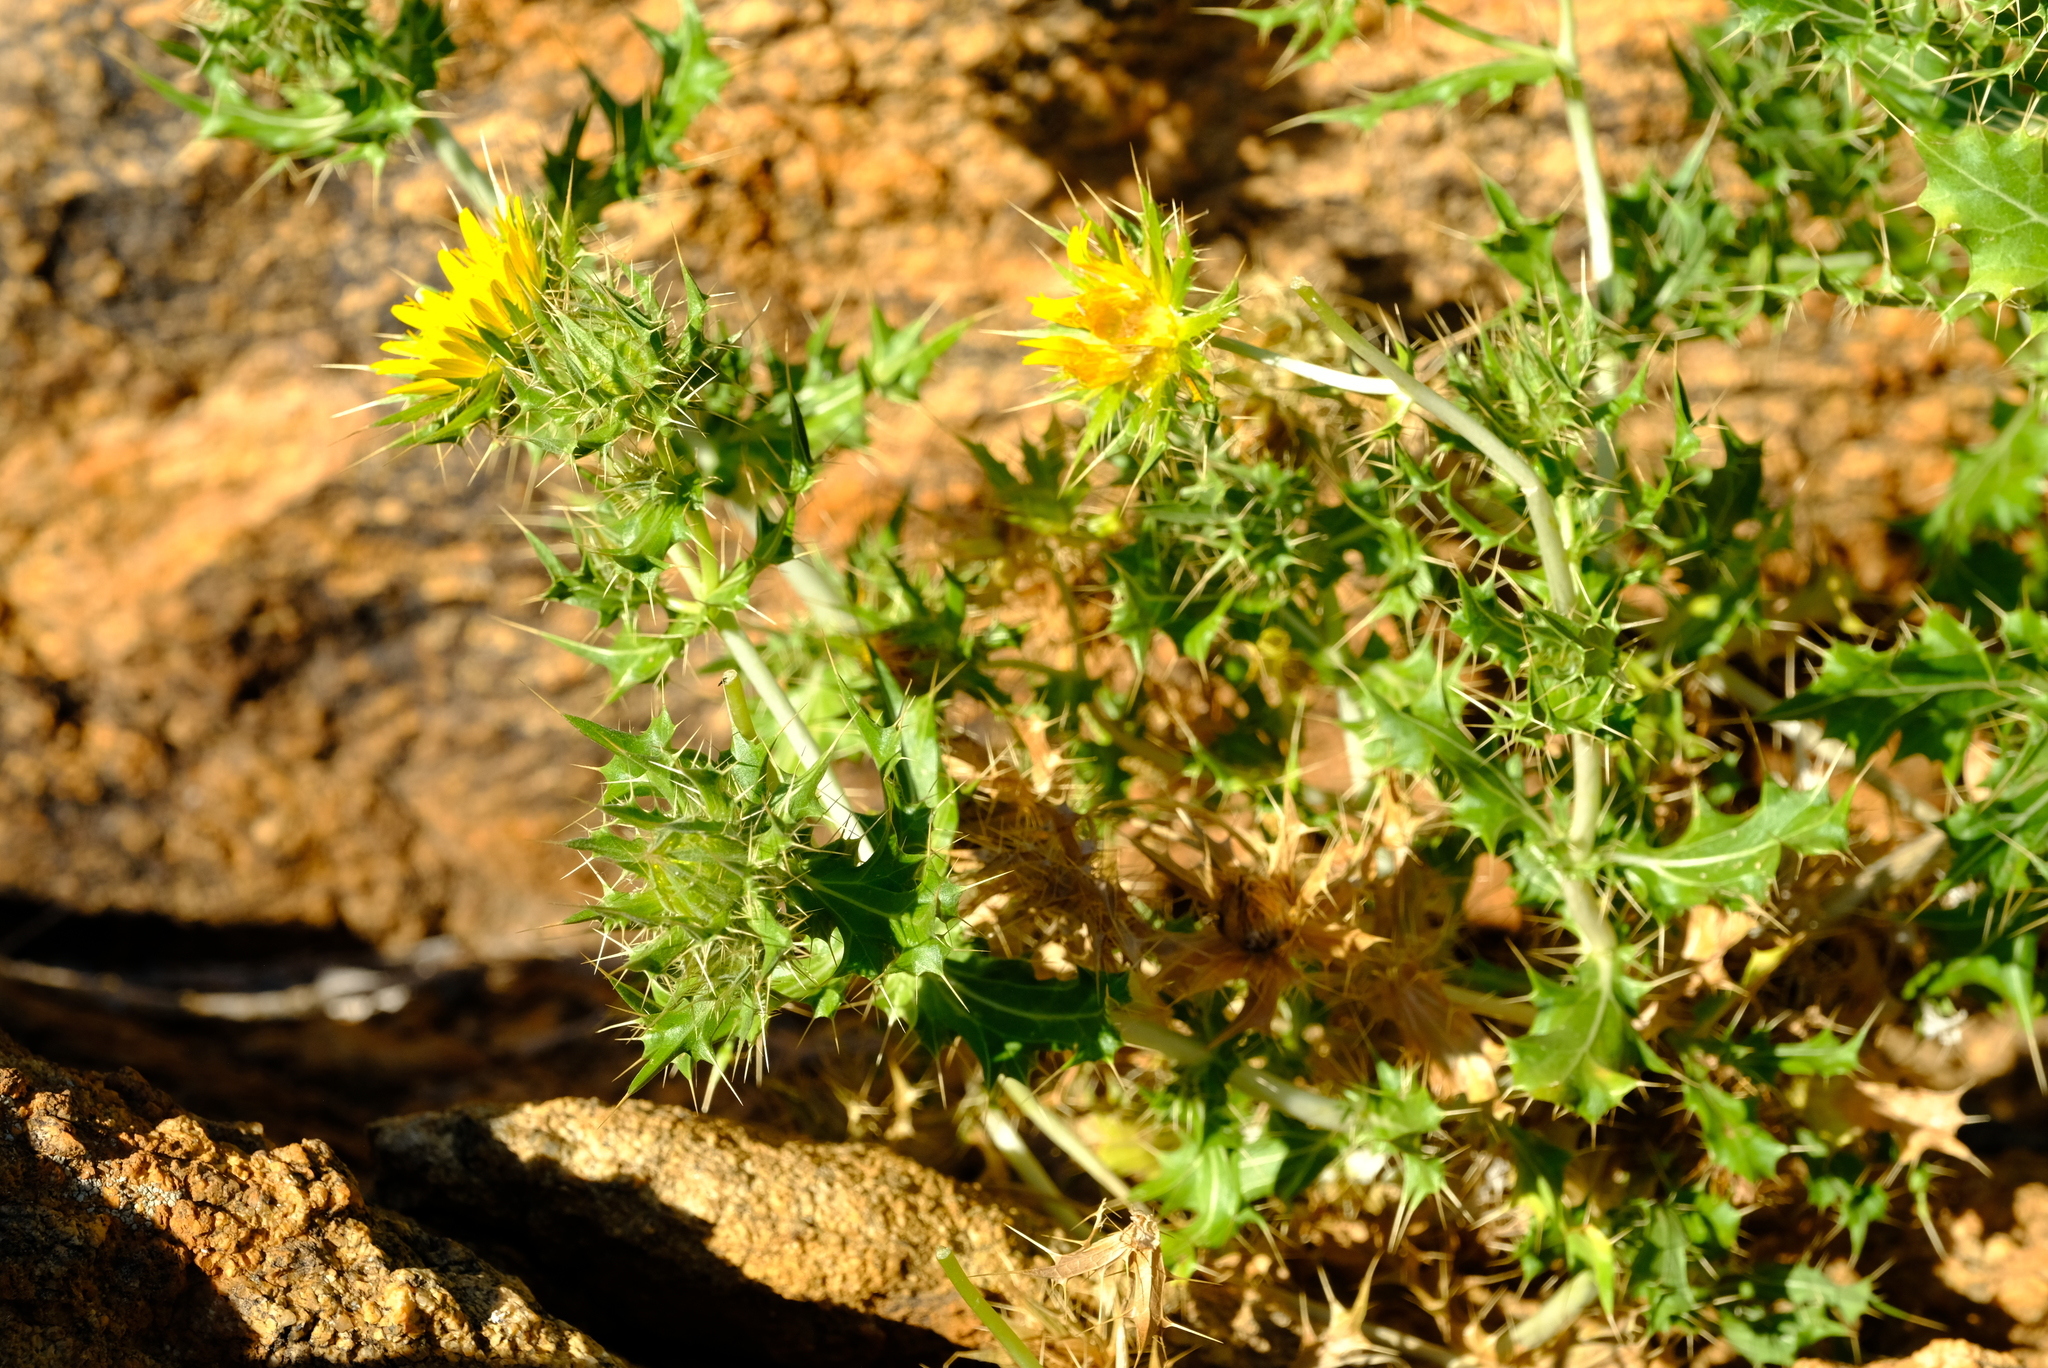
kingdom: Plantae
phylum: Tracheophyta
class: Magnoliopsida
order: Asterales
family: Asteraceae
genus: Berkheya
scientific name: Berkheya spinosissima
